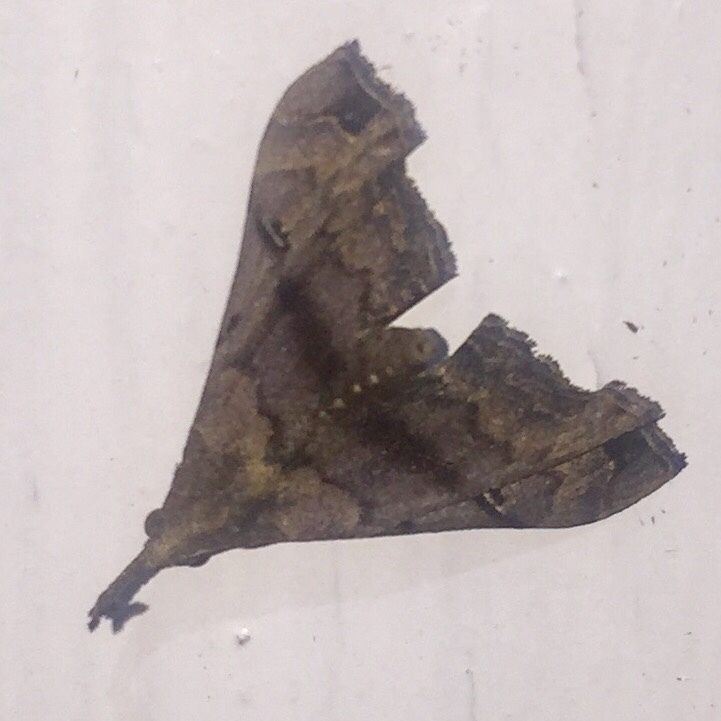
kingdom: Animalia
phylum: Arthropoda
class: Insecta
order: Lepidoptera
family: Erebidae
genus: Palthis
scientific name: Palthis asopialis
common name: Faint-spotted palthis moth
